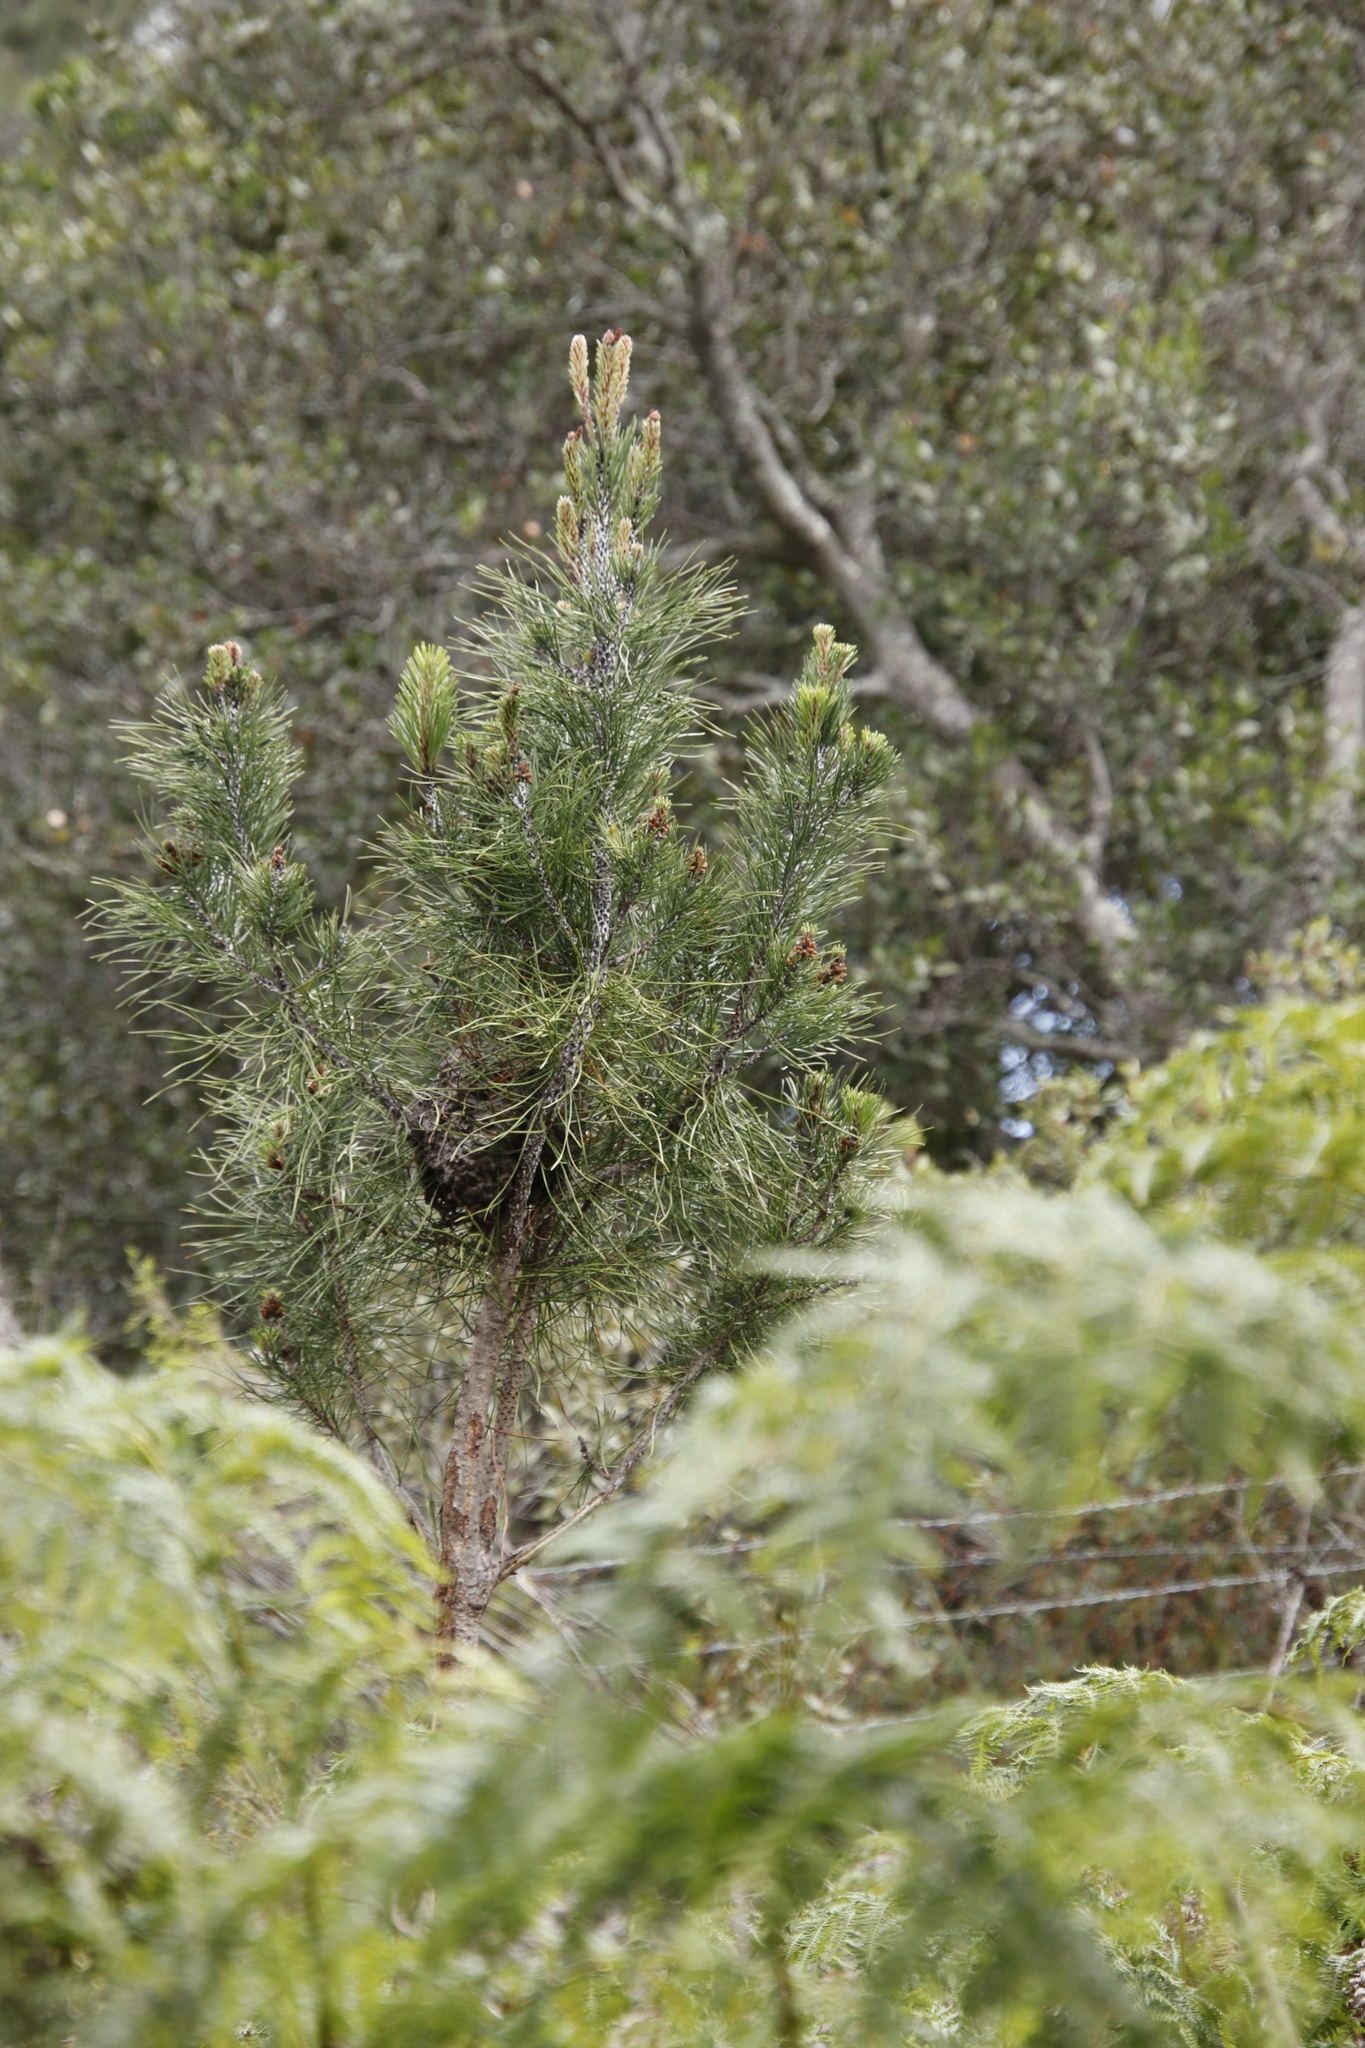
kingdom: Animalia
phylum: Arthropoda
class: Insecta
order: Hymenoptera
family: Formicidae
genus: Crematogaster
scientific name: Crematogaster peringueyi
